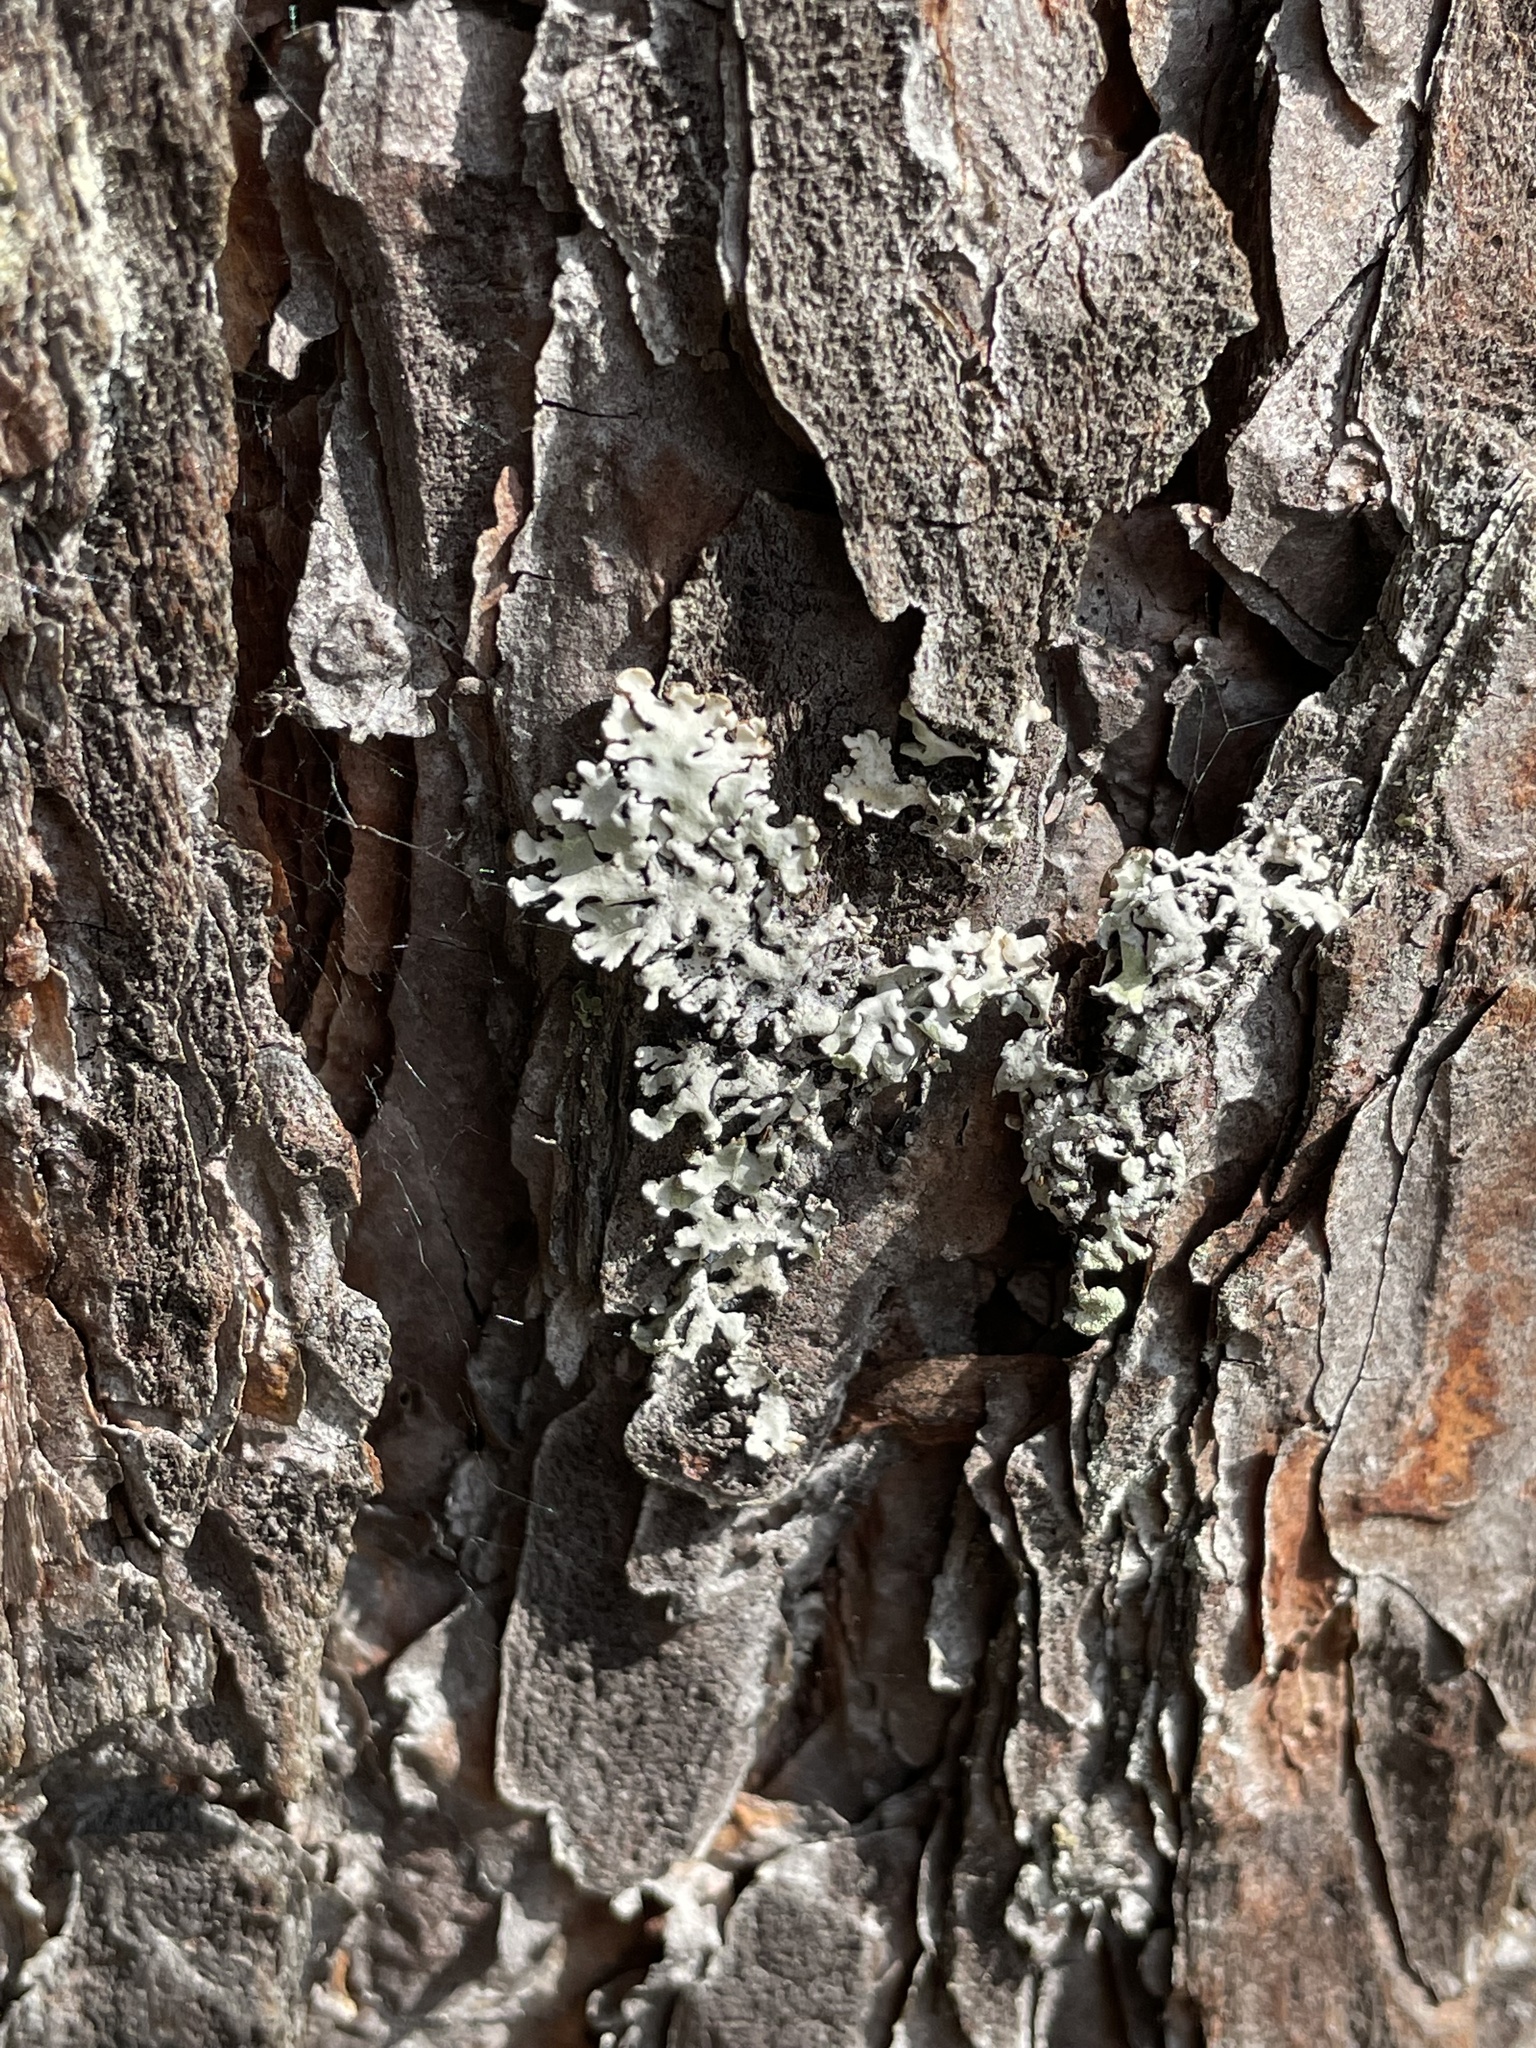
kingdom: Fungi
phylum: Ascomycota
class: Lecanoromycetes
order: Lecanorales
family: Parmeliaceae
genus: Hypogymnia
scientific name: Hypogymnia physodes
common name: Dark crottle
